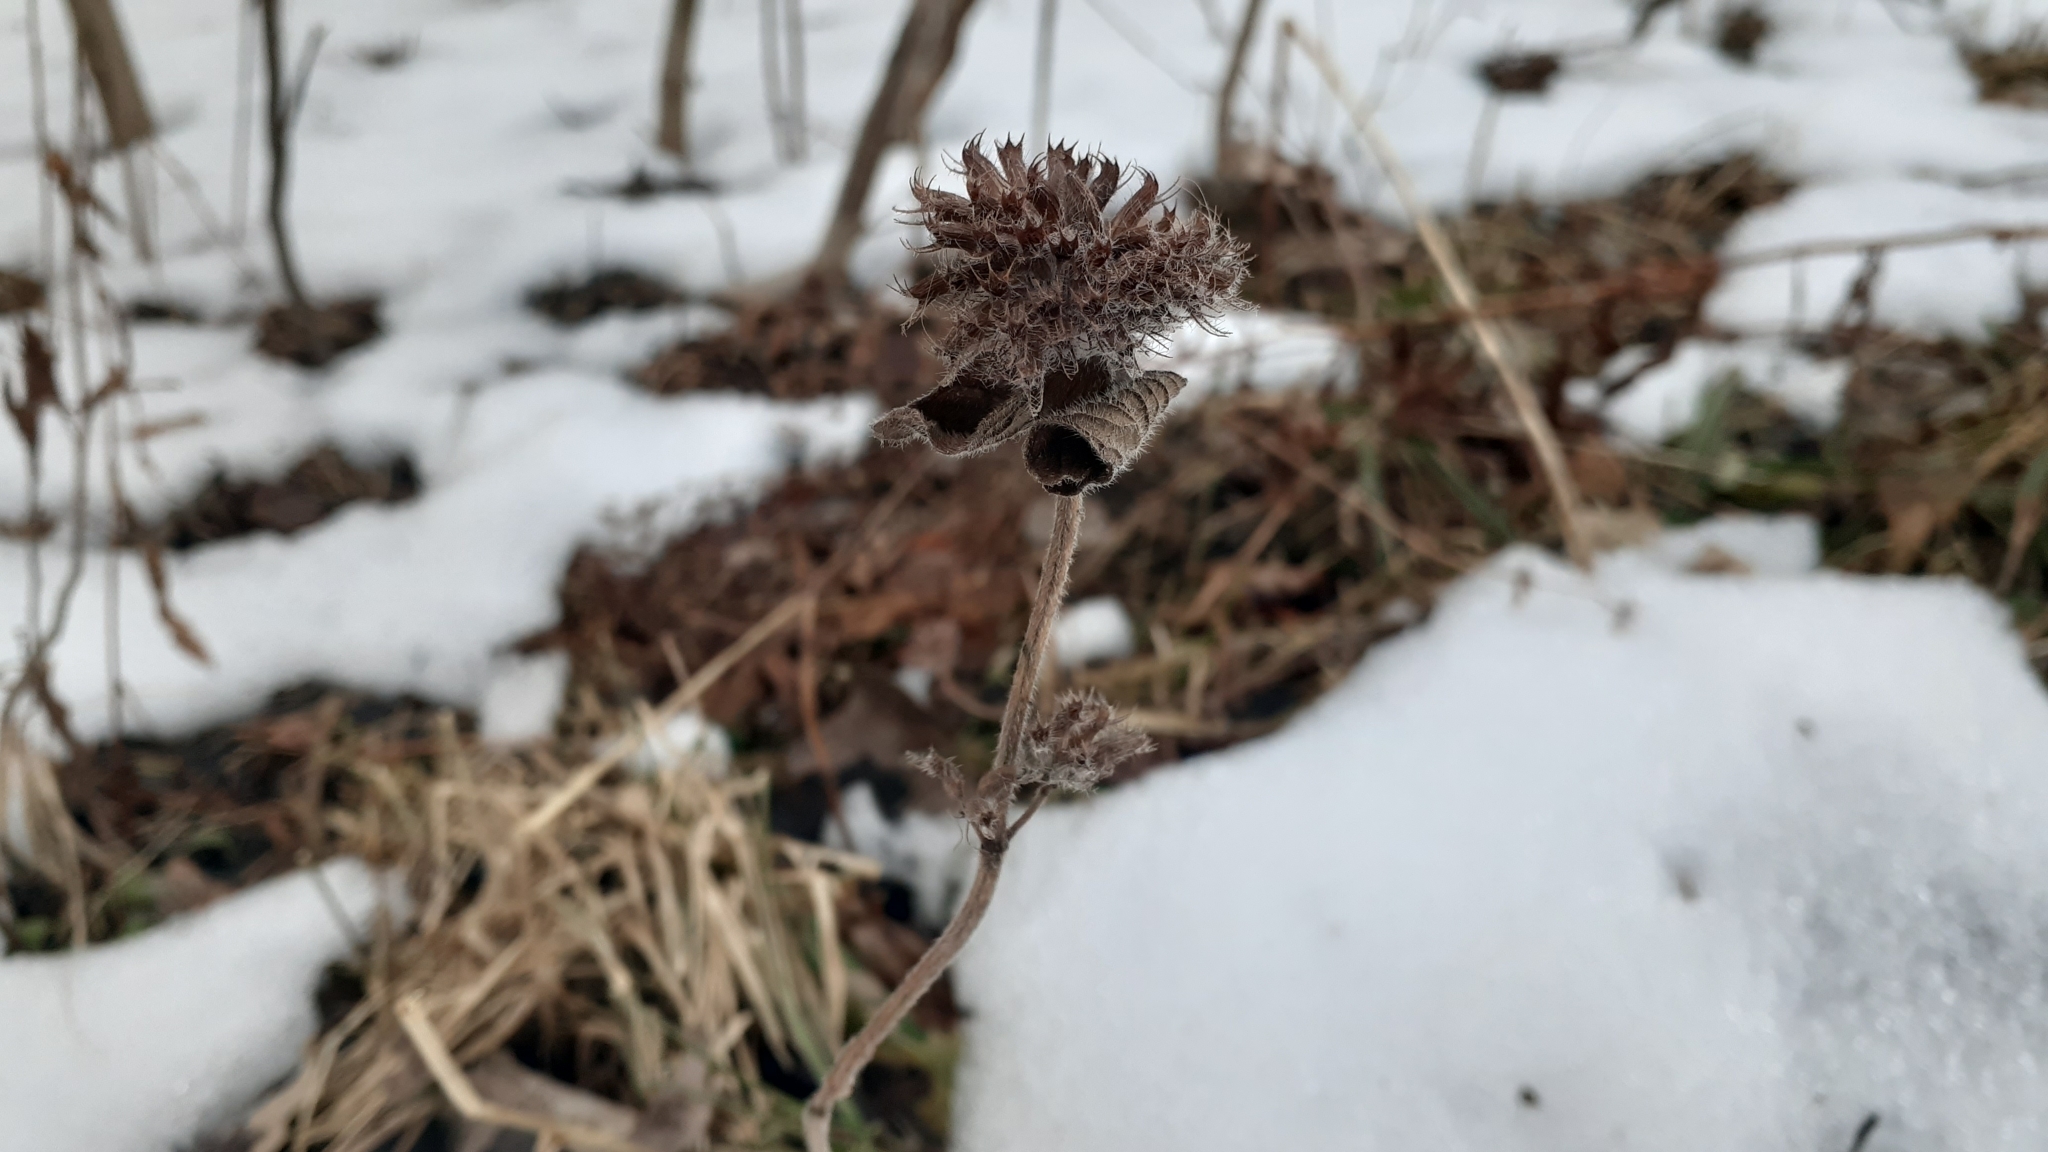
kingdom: Plantae
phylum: Tracheophyta
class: Magnoliopsida
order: Lamiales
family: Lamiaceae
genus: Clinopodium
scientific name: Clinopodium vulgare
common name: Wild basil
